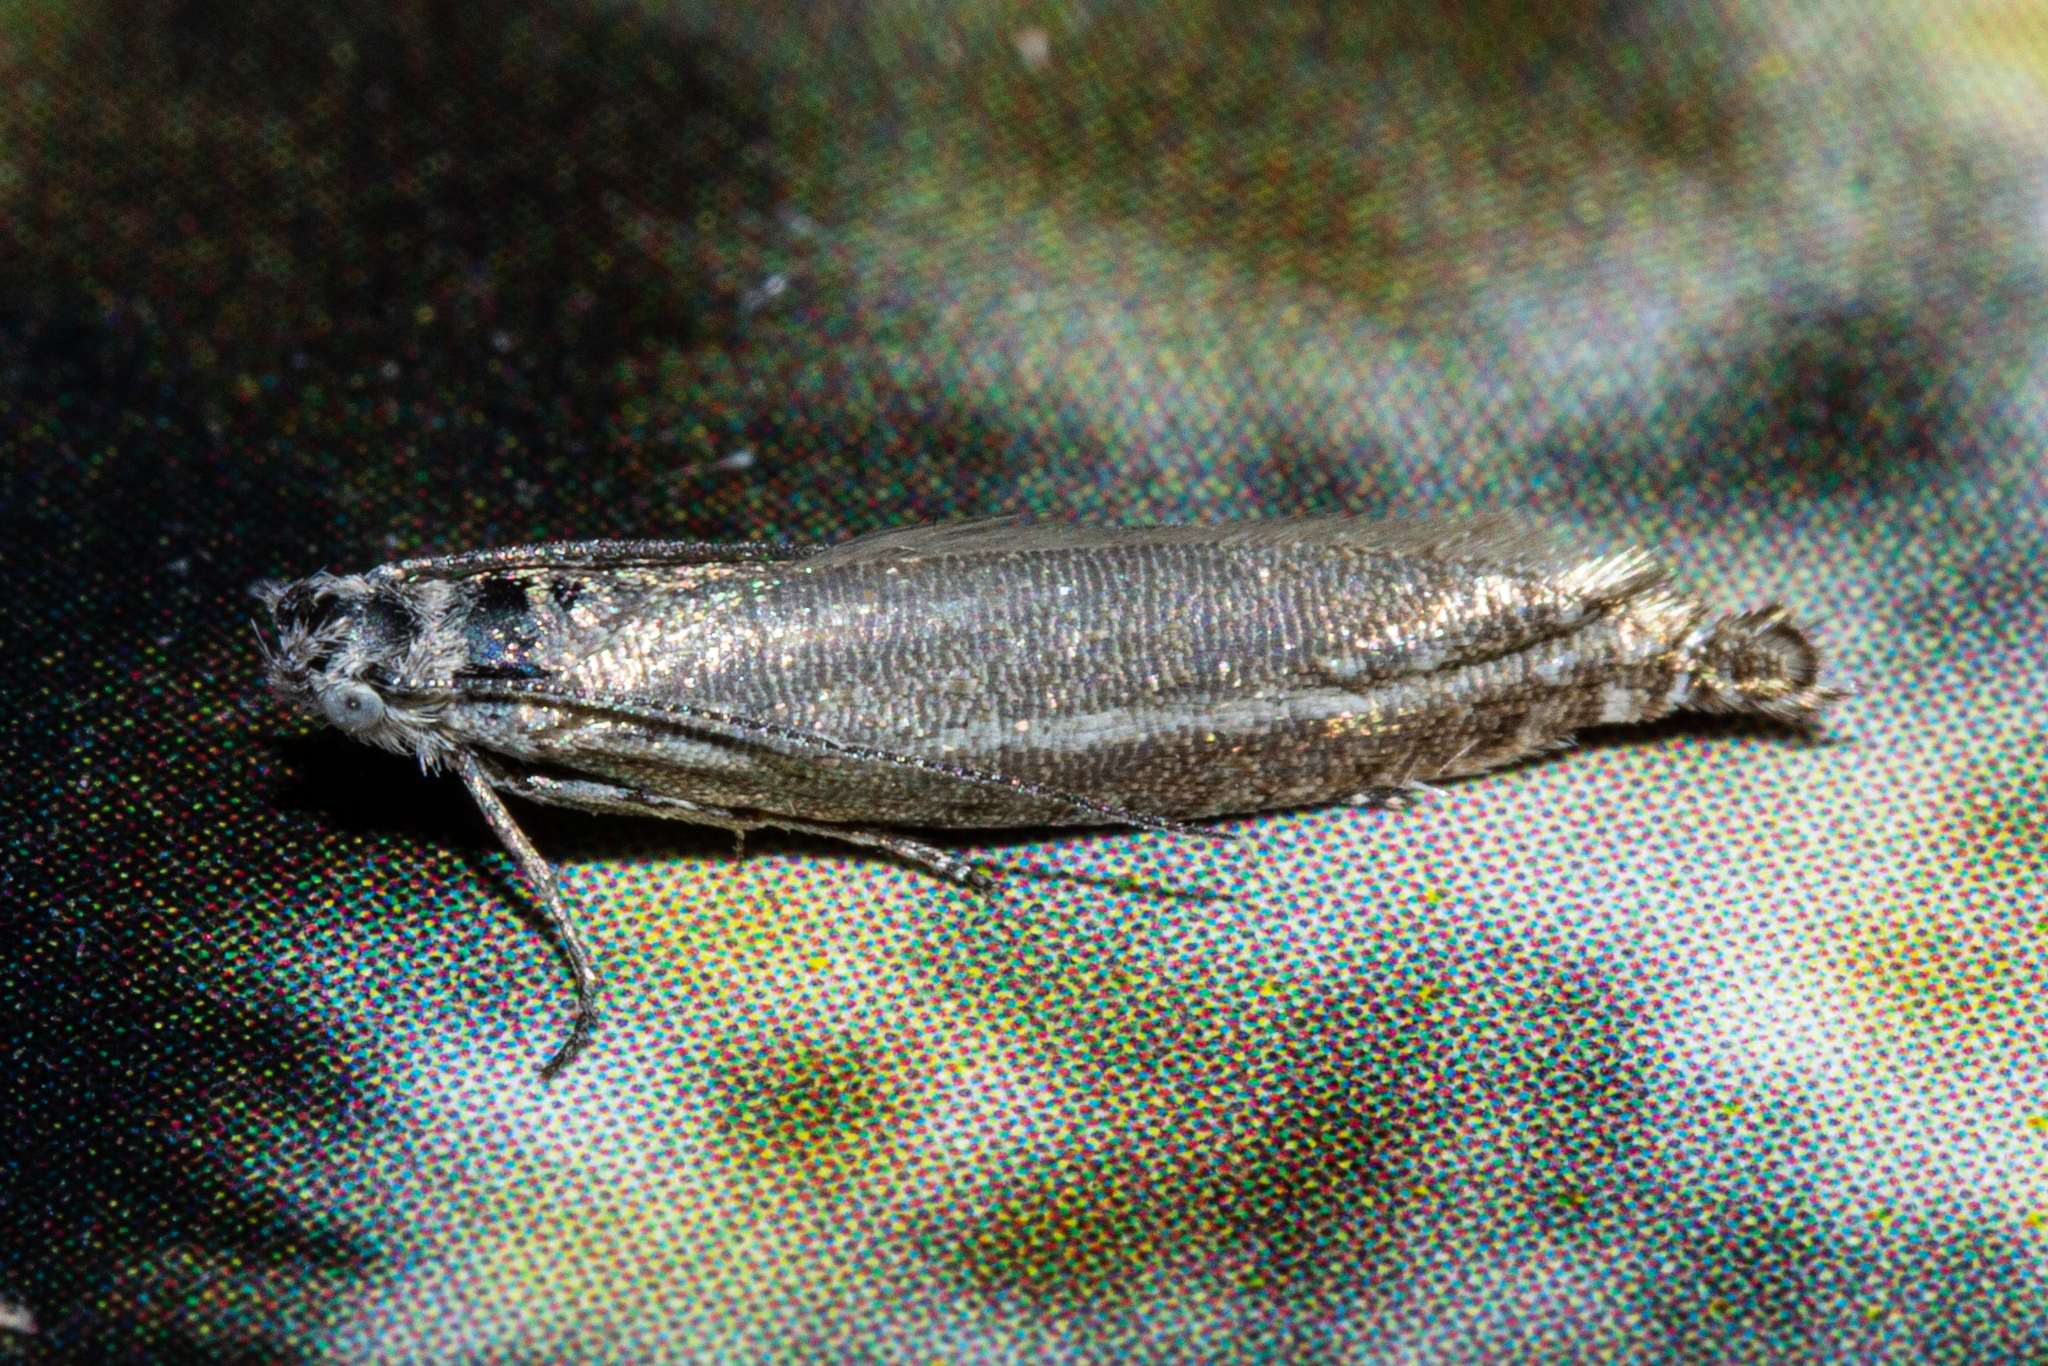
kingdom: Animalia
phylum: Arthropoda
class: Insecta
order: Lepidoptera
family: Glyphipterigidae
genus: Glyphipterix
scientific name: Glyphipterix barbata
